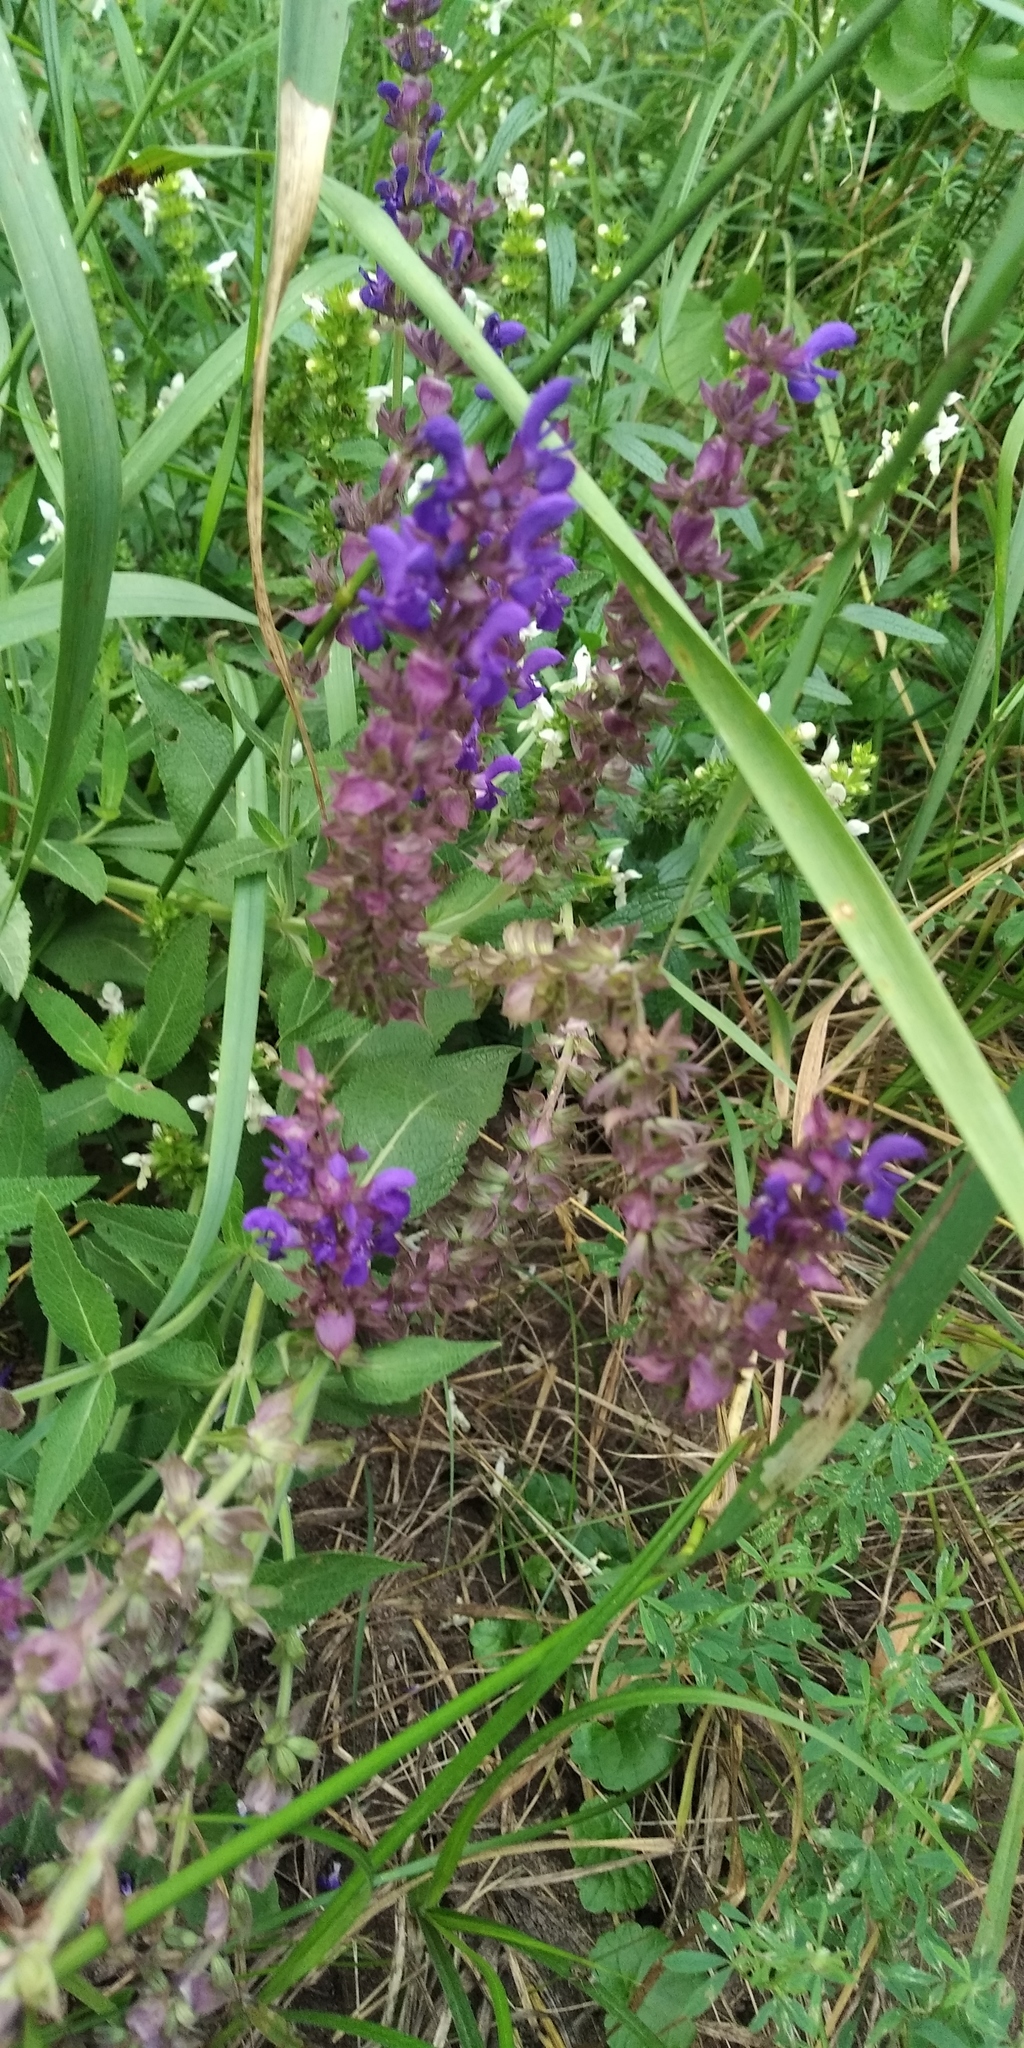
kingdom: Plantae
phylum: Tracheophyta
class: Magnoliopsida
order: Lamiales
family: Lamiaceae
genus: Salvia
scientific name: Salvia nemorosa
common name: Balkan clary
